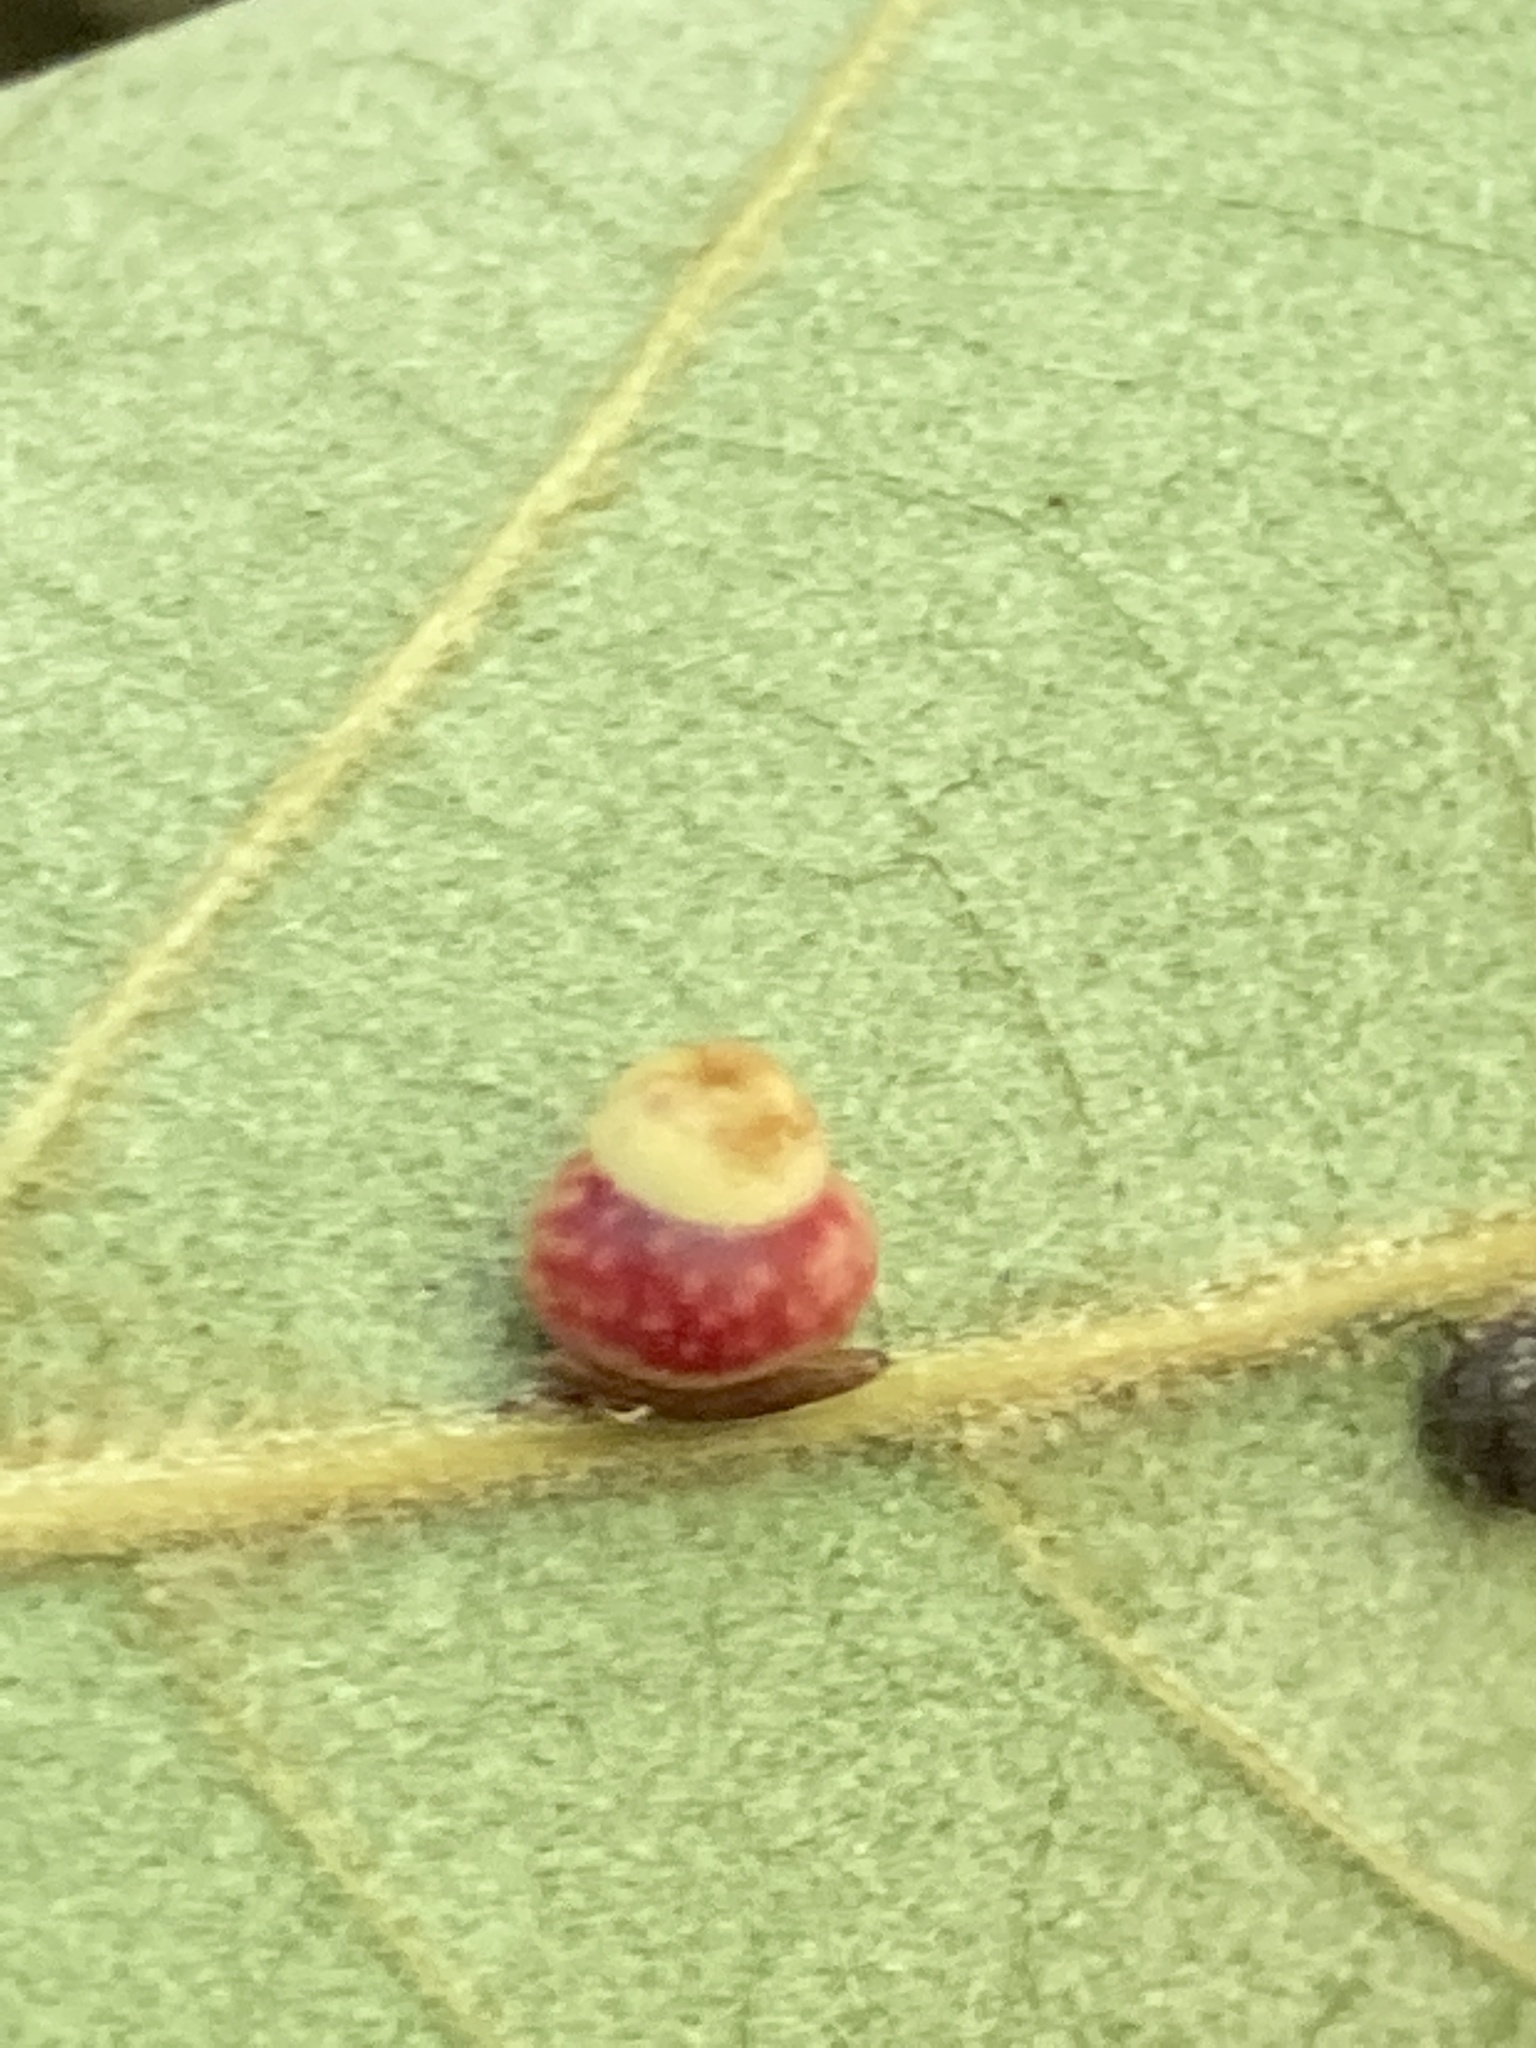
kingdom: Animalia
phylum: Arthropoda
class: Insecta
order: Hymenoptera
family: Cynipidae
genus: Kokkocynips
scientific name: Kokkocynips rileyi
